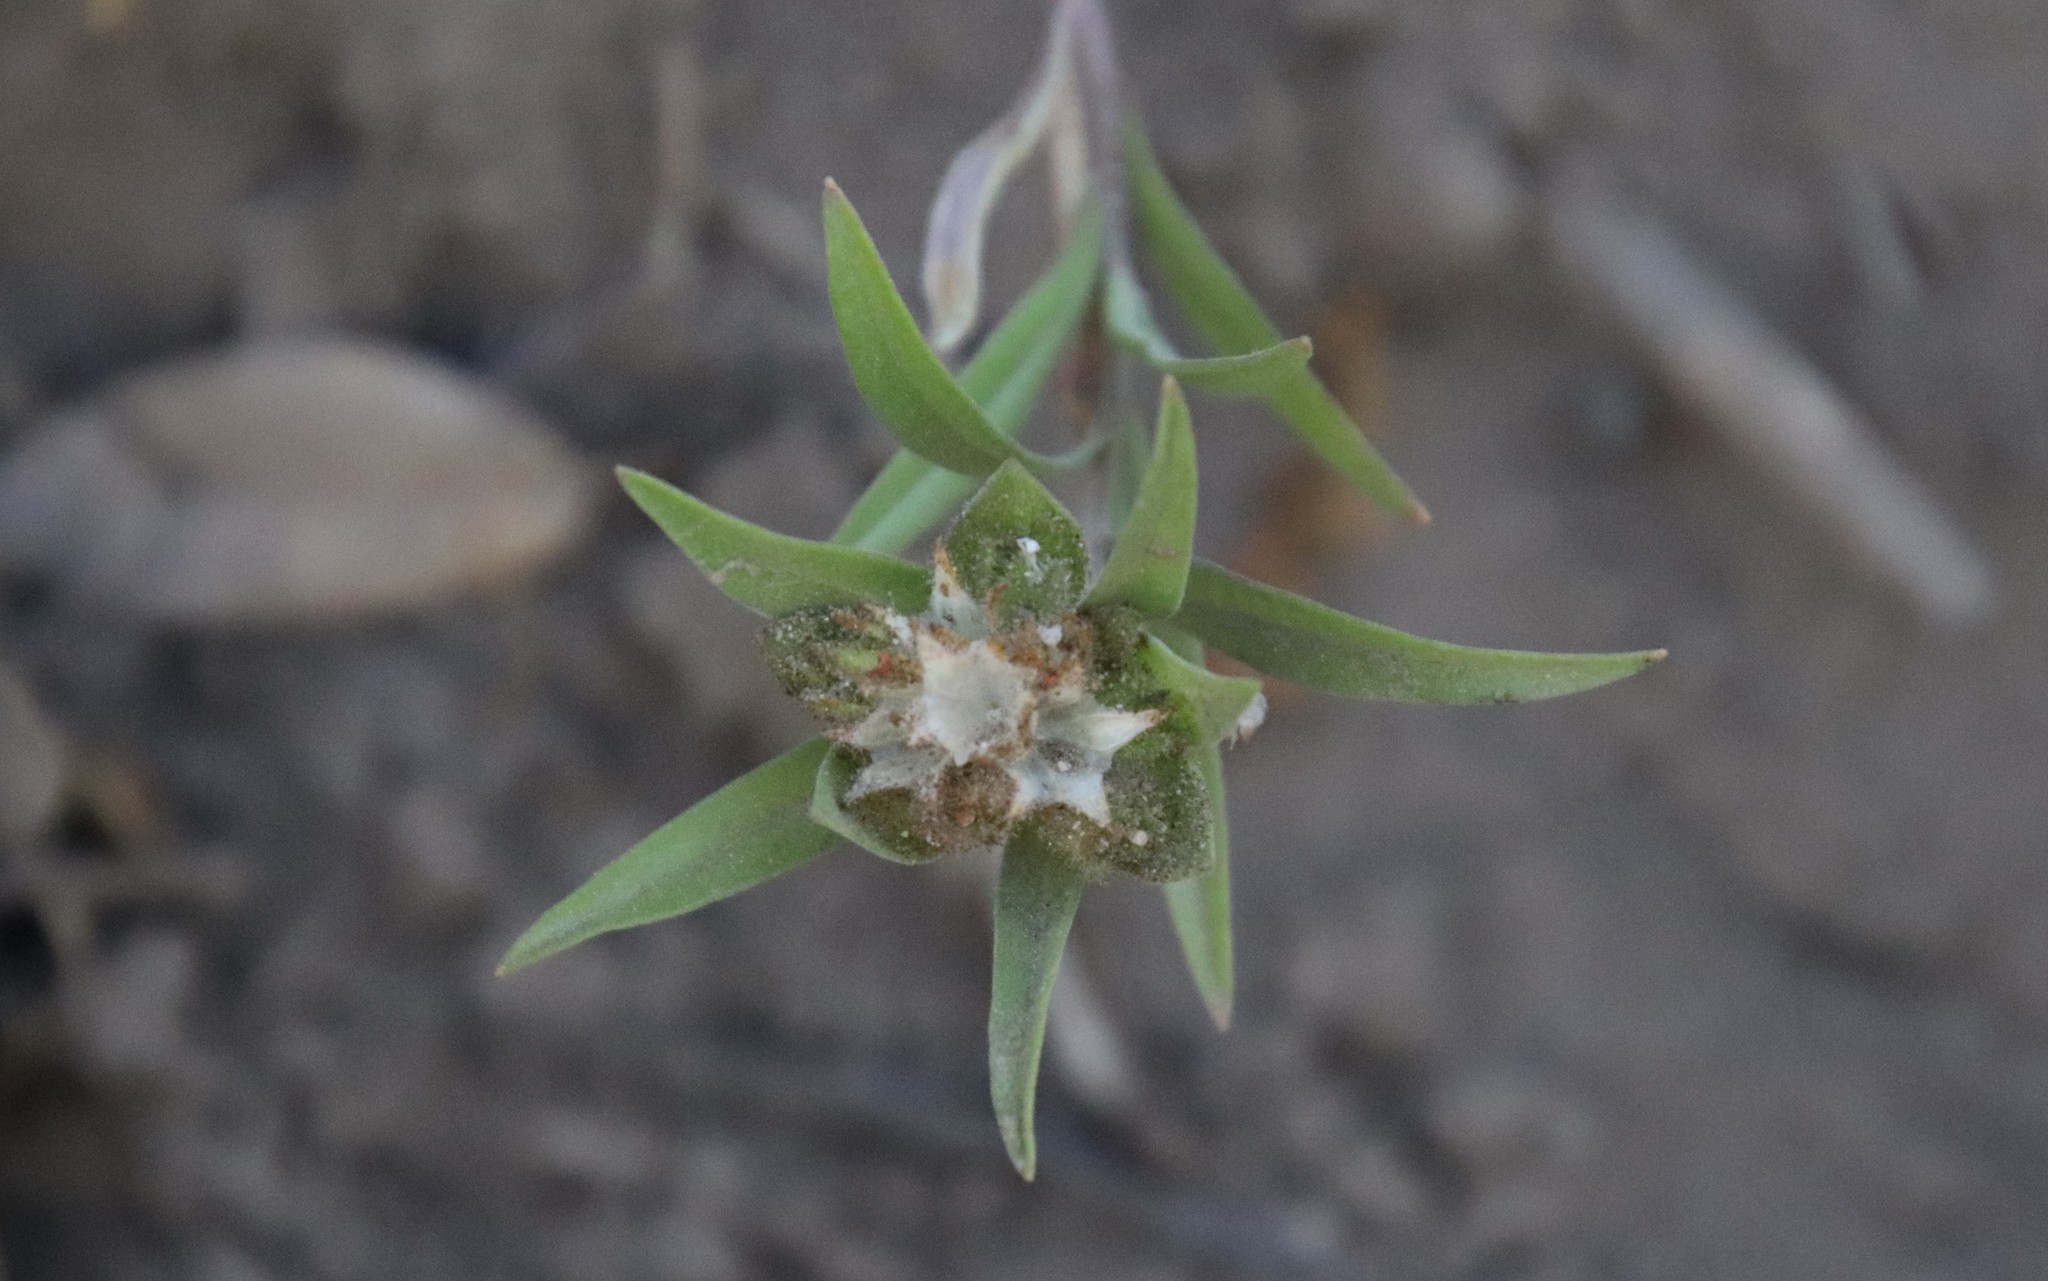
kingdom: Plantae
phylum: Tracheophyta
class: Magnoliopsida
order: Ericales
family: Polemoniaceae
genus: Collomia
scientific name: Collomia grandiflora
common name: California strawflower
